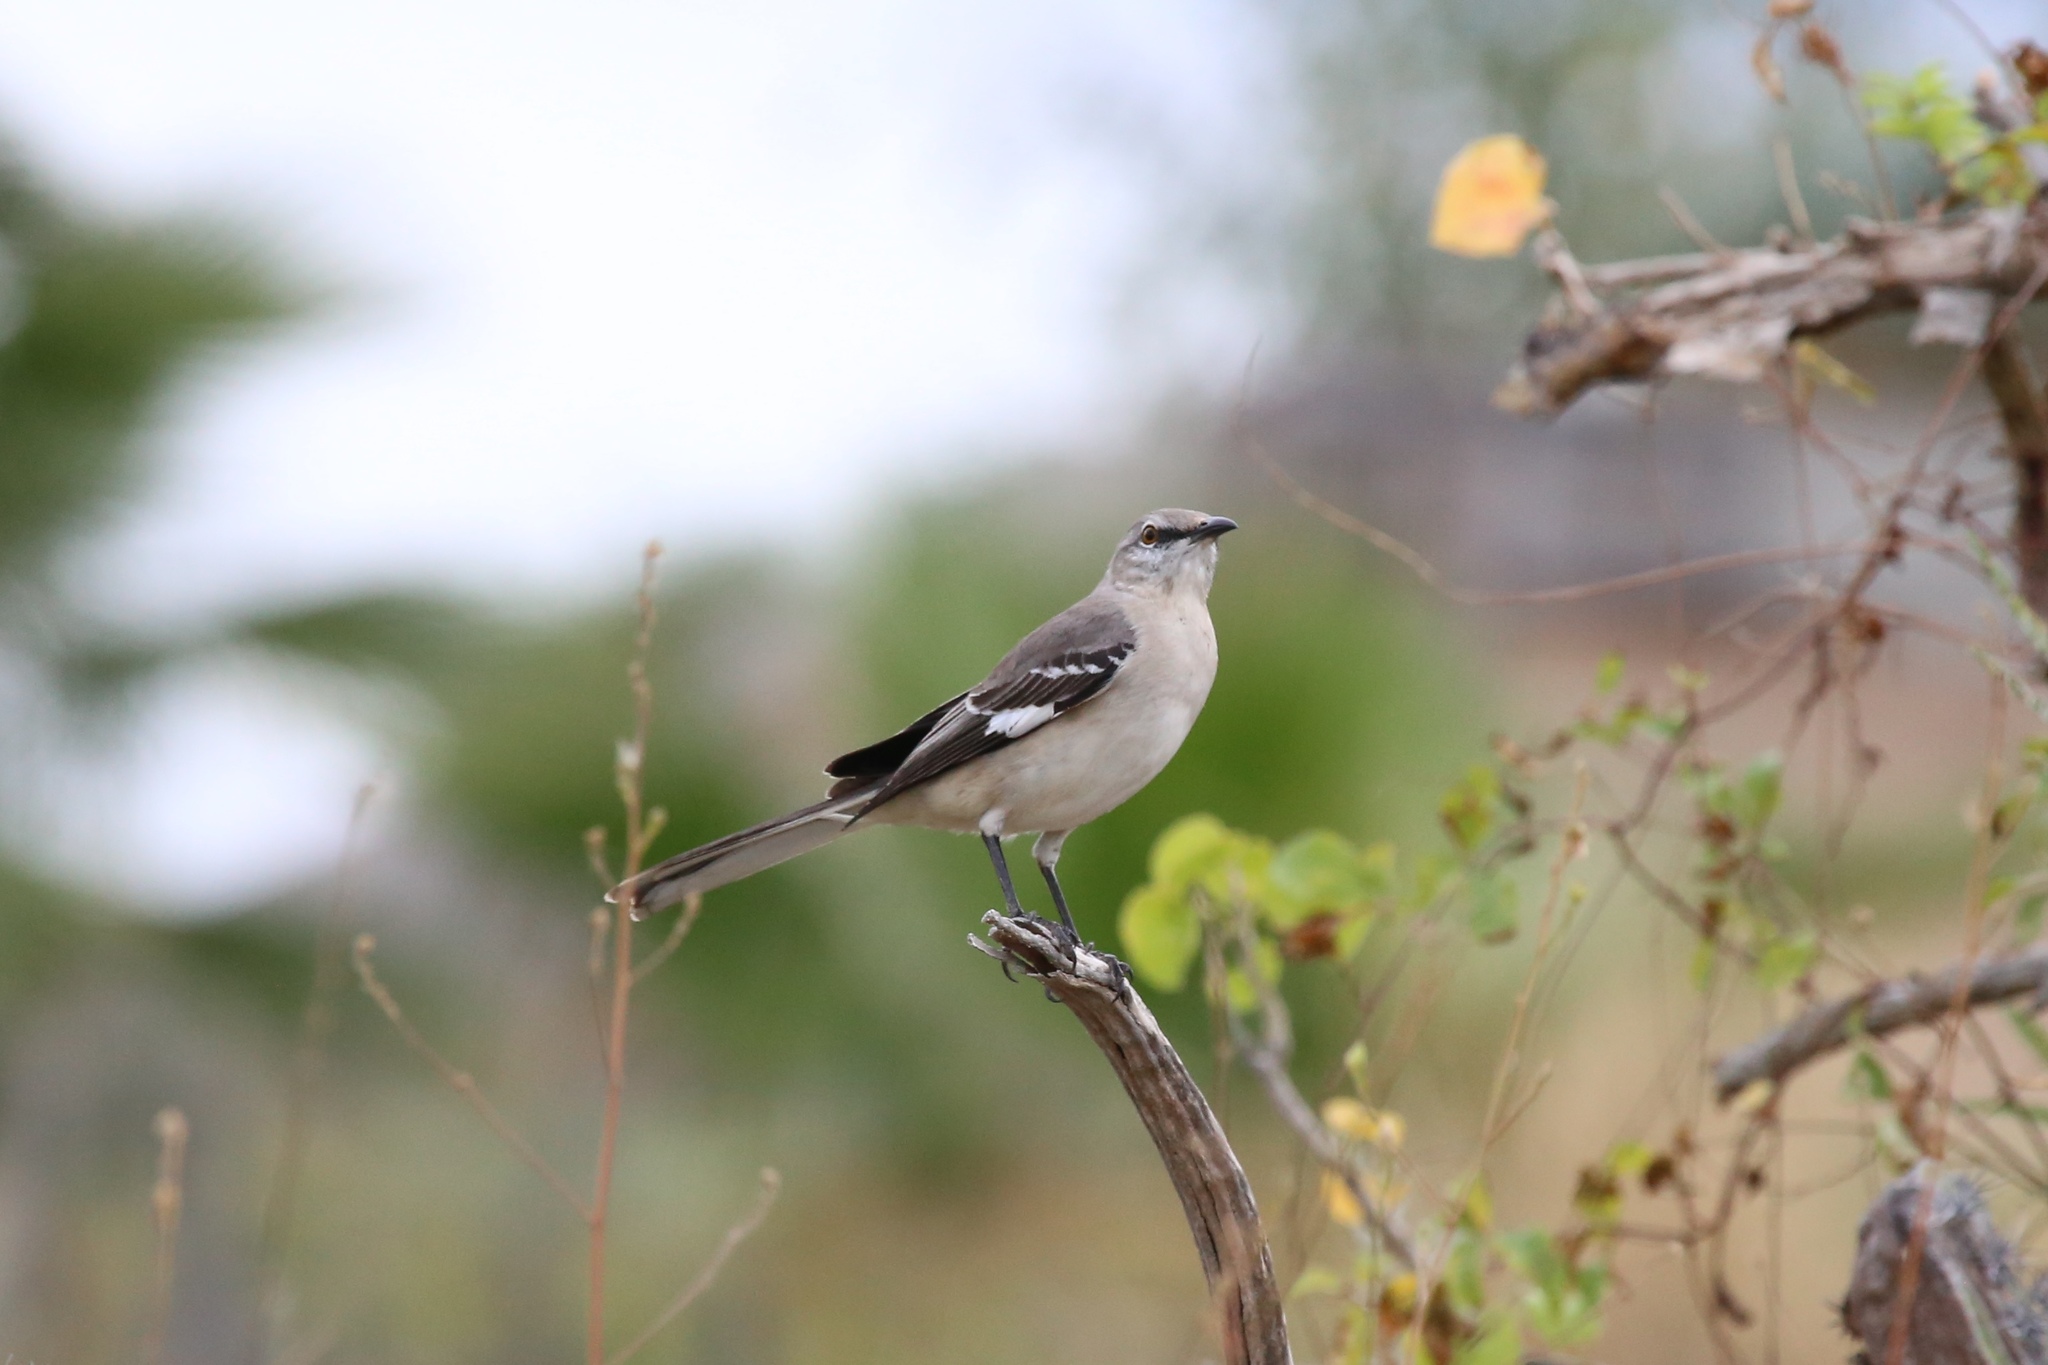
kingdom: Animalia
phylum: Chordata
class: Aves
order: Passeriformes
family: Mimidae
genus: Mimus
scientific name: Mimus polyglottos
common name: Northern mockingbird
